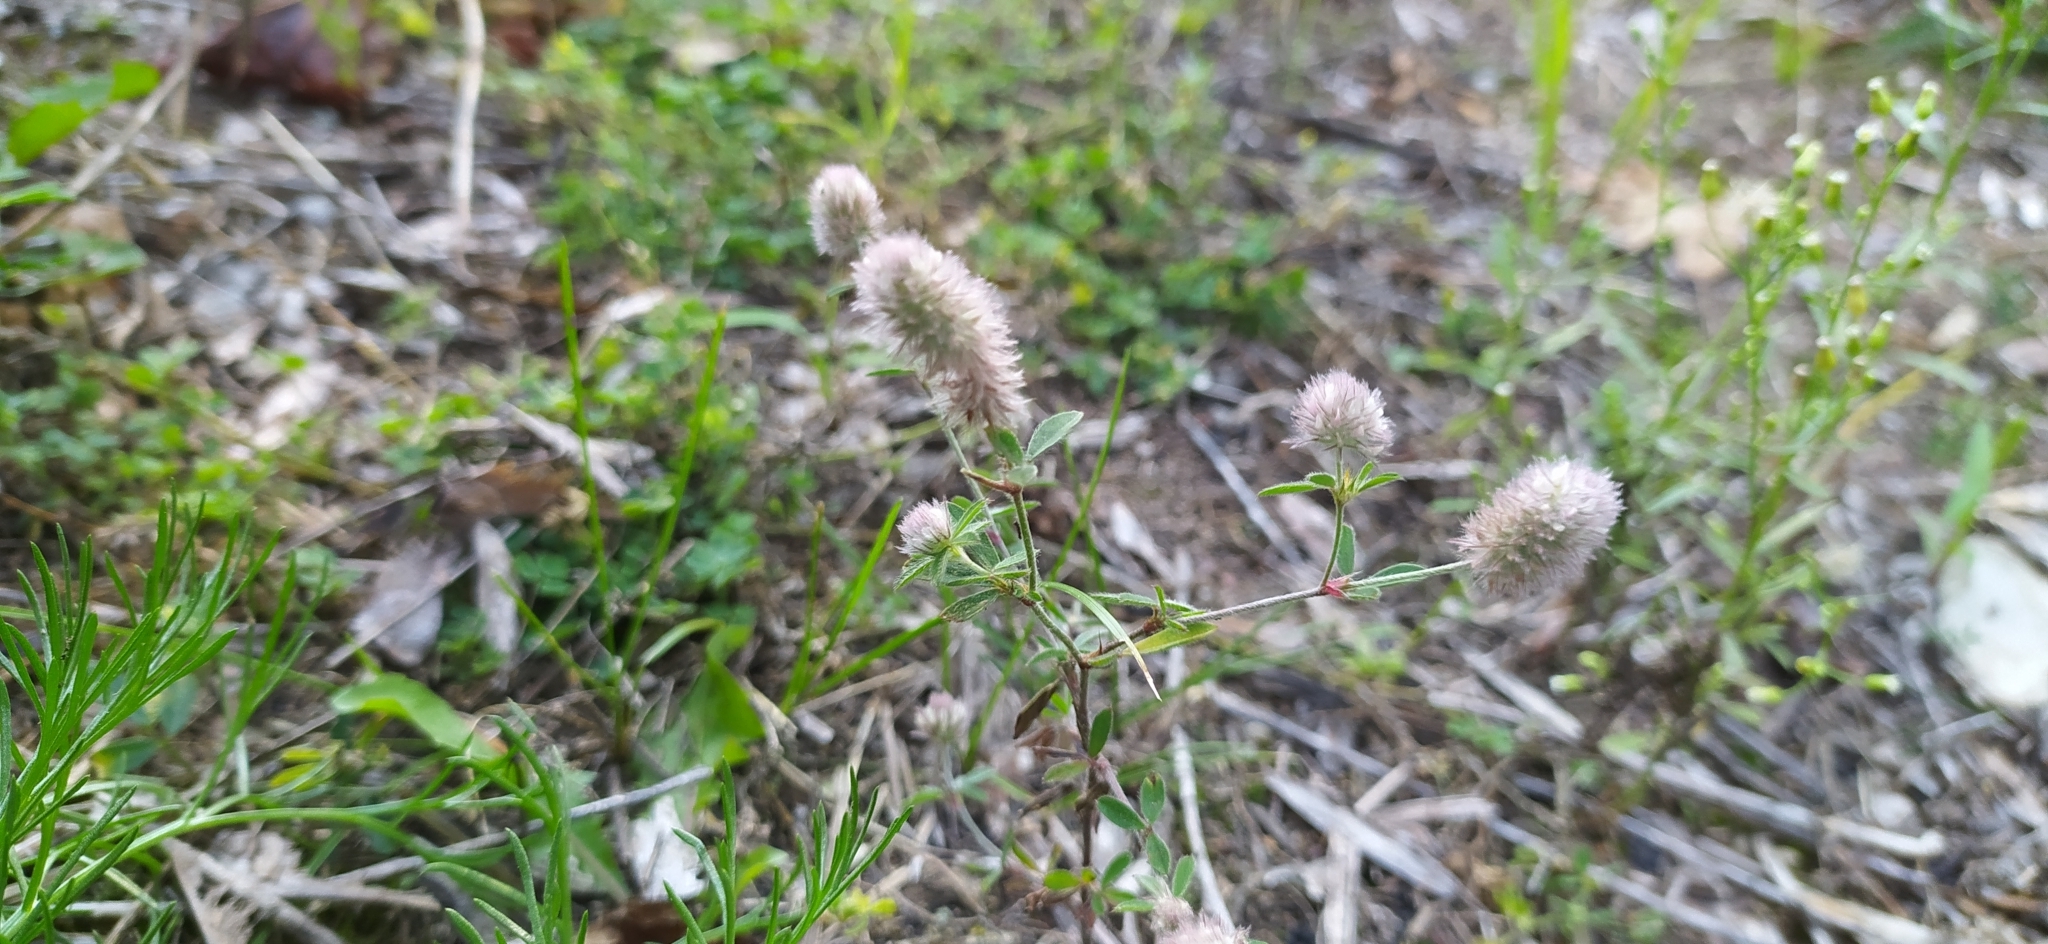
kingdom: Plantae
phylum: Tracheophyta
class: Magnoliopsida
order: Fabales
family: Fabaceae
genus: Trifolium
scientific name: Trifolium arvense
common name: Hare's-foot clover
